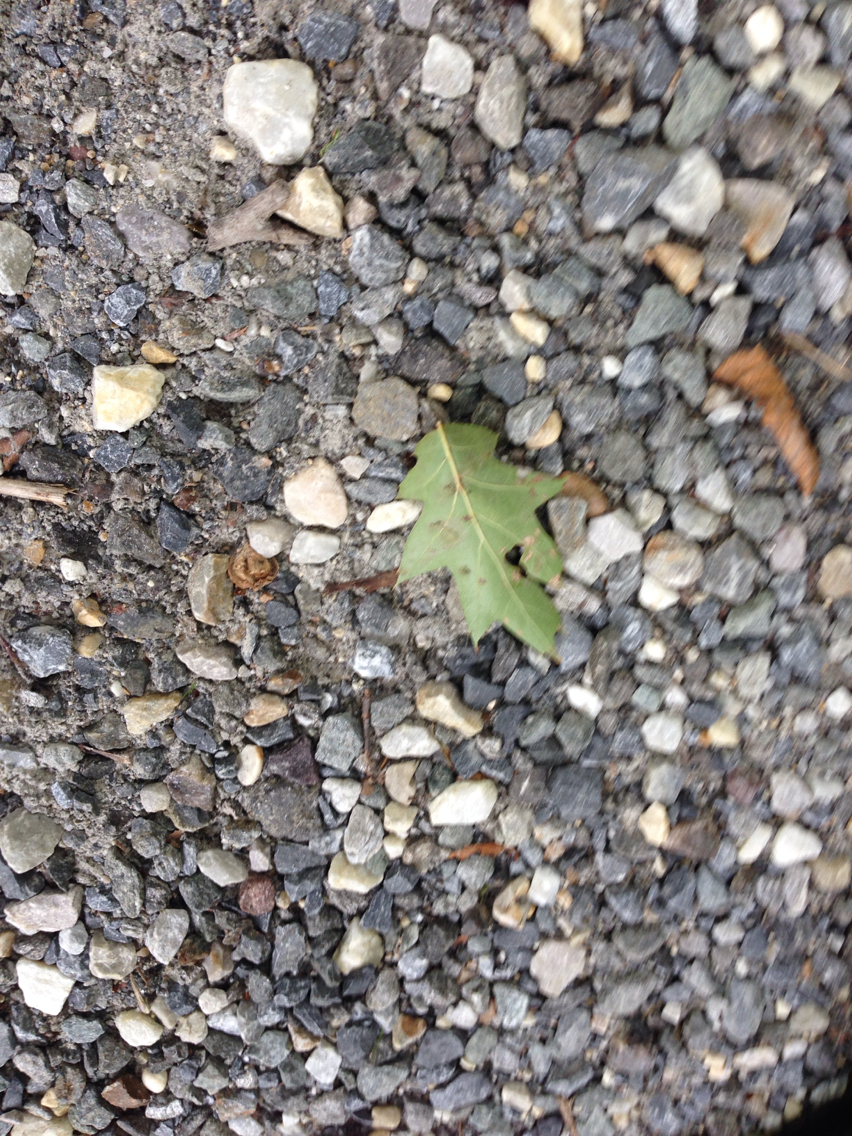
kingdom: Plantae
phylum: Tracheophyta
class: Magnoliopsida
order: Fagales
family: Fagaceae
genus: Quercus
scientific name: Quercus rubra
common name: Red oak
